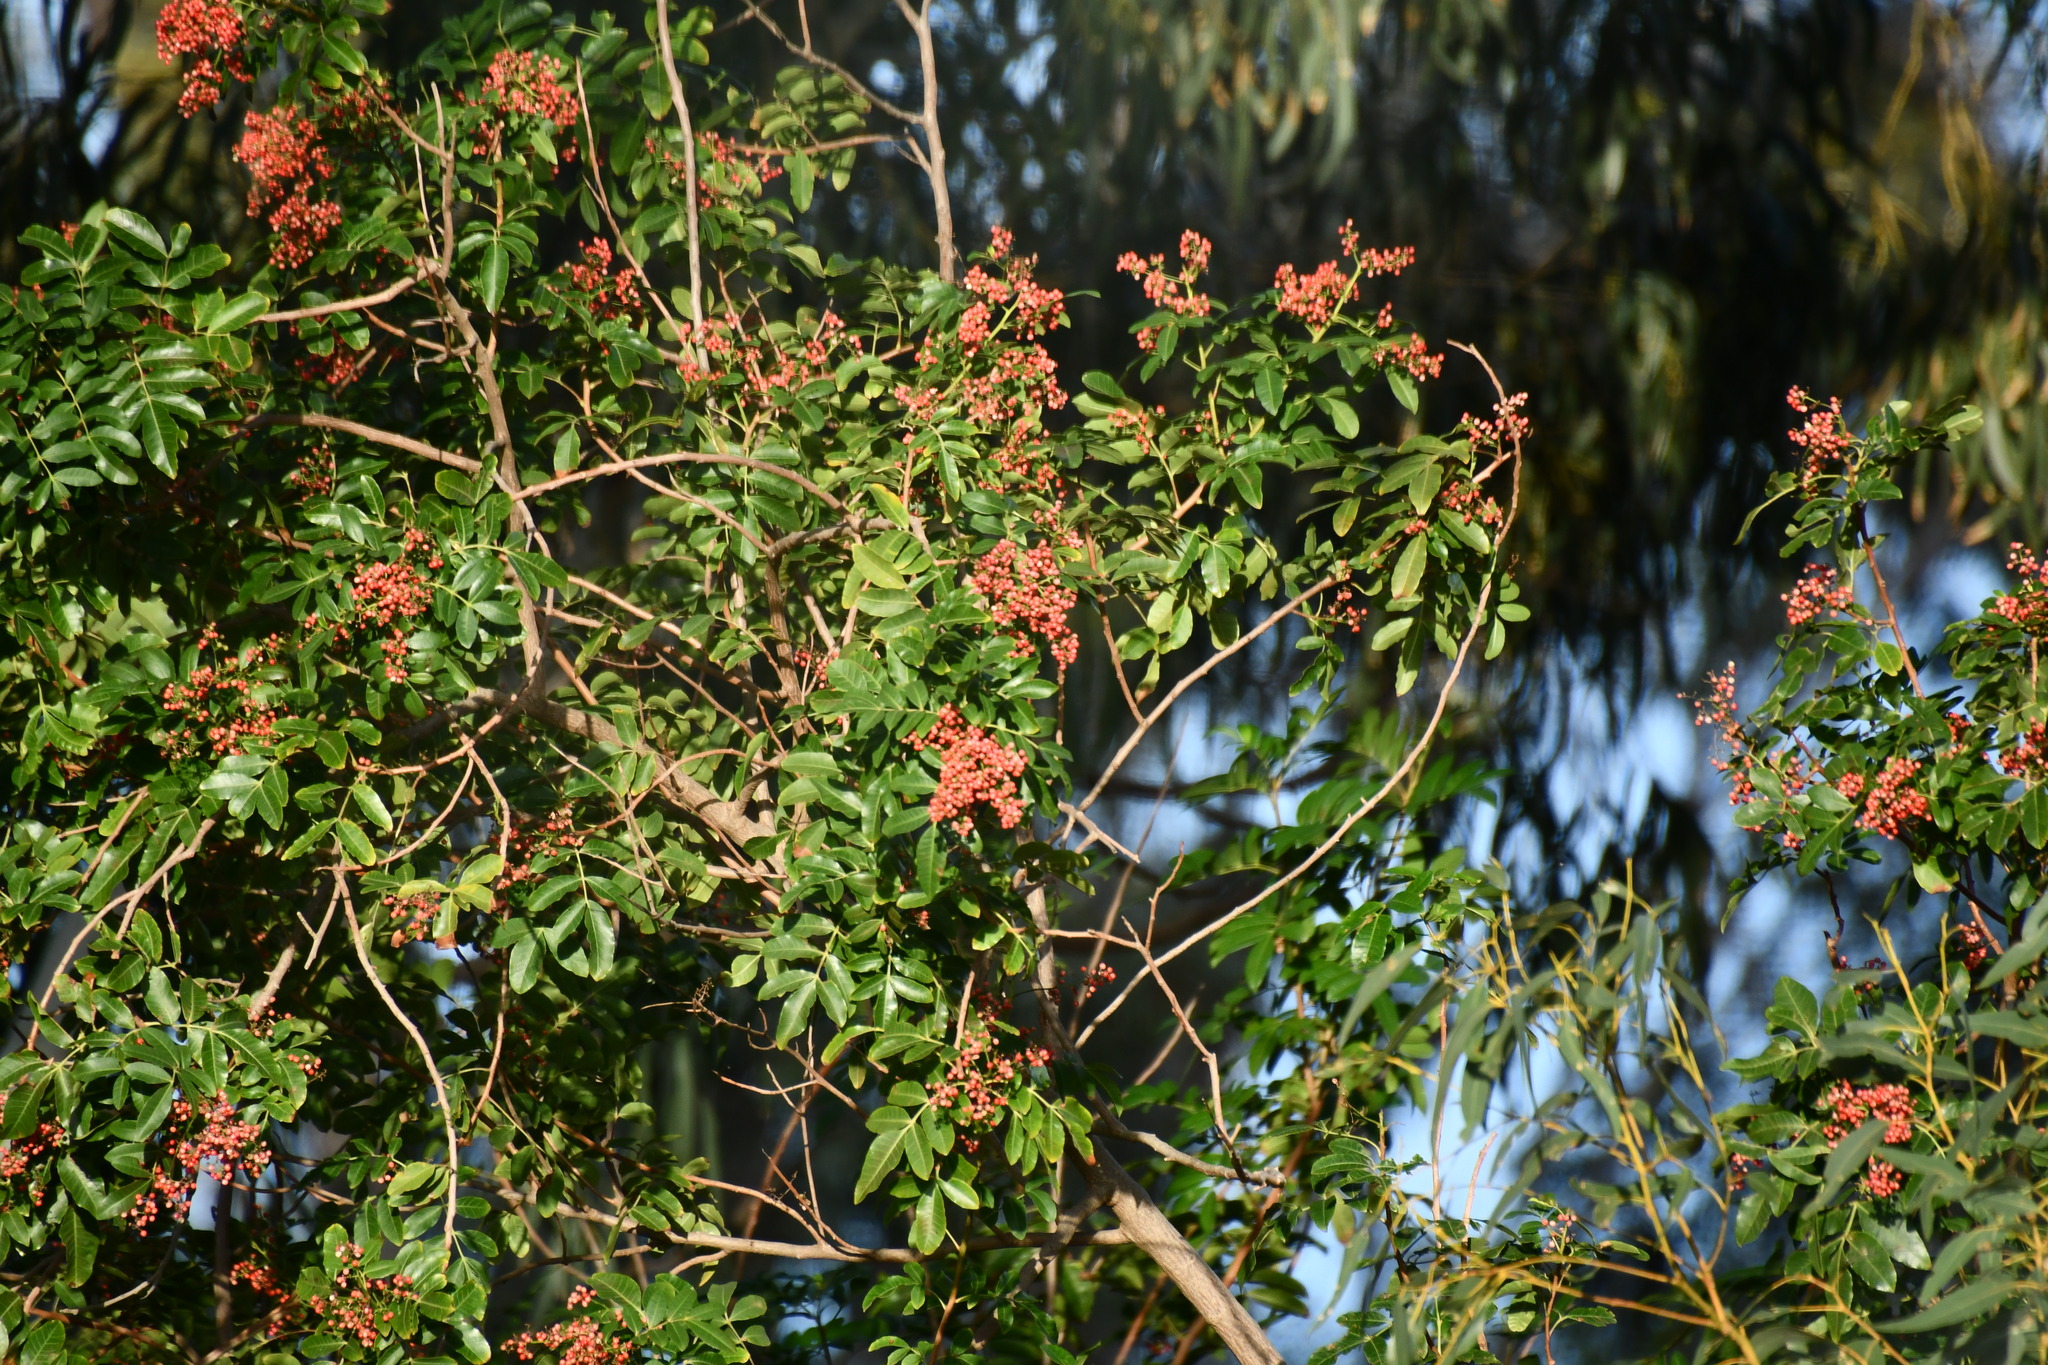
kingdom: Plantae
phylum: Tracheophyta
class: Magnoliopsida
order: Sapindales
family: Anacardiaceae
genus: Schinus
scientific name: Schinus terebinthifolia
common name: Brazilian peppertree
